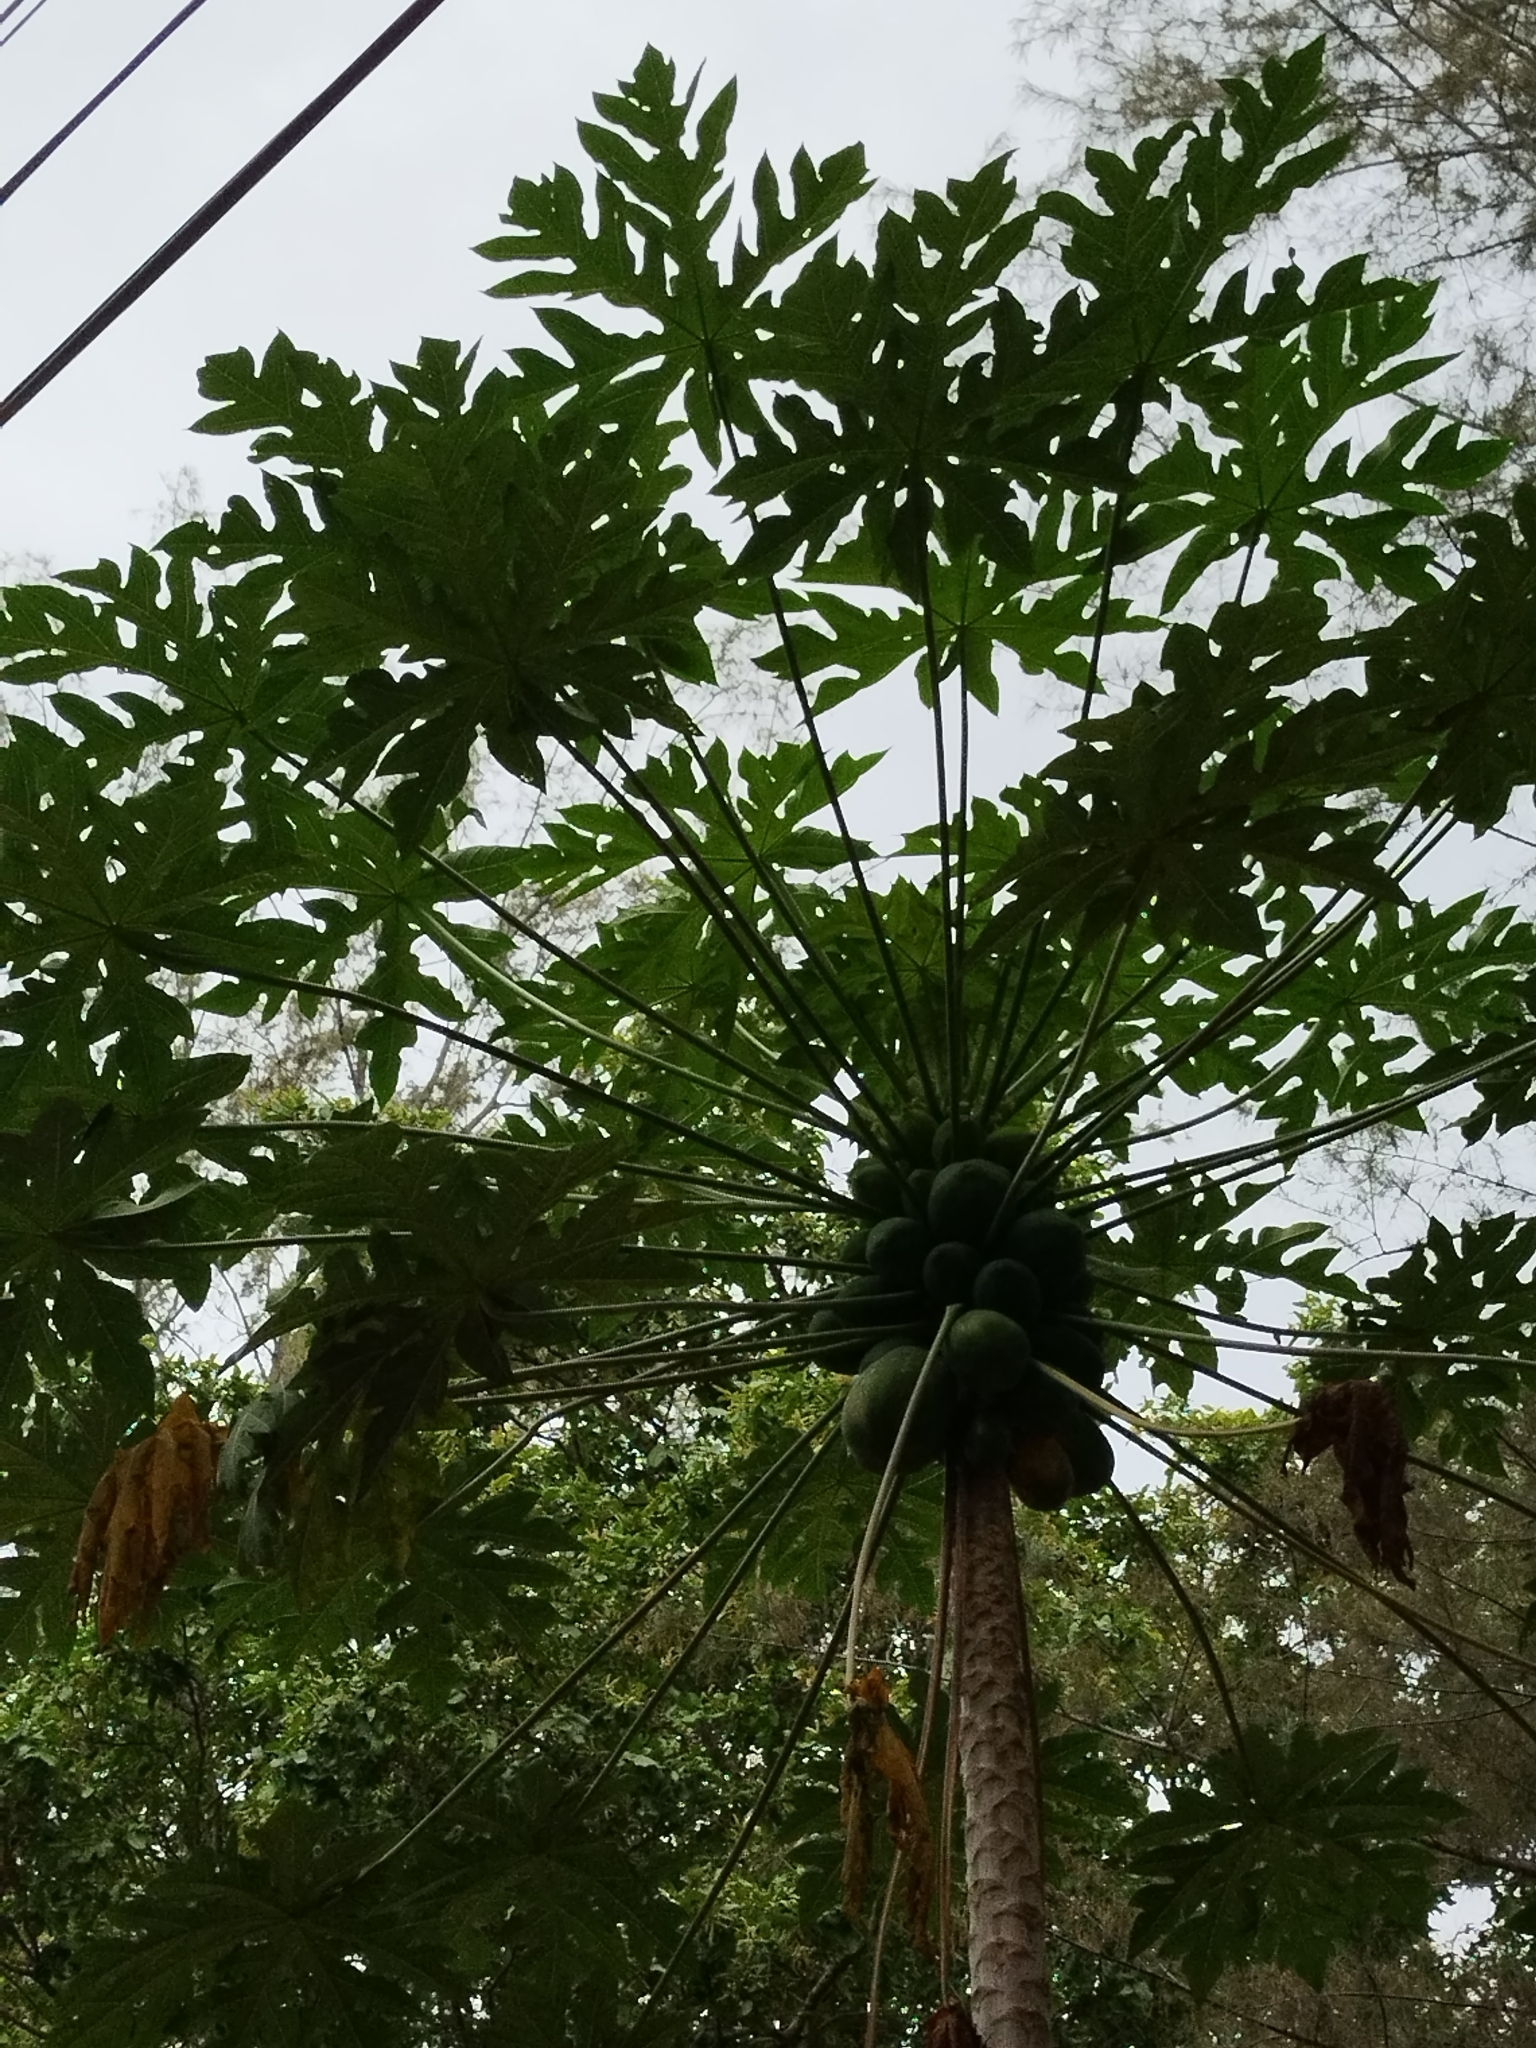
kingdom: Plantae
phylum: Tracheophyta
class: Magnoliopsida
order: Brassicales
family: Caricaceae
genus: Carica
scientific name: Carica papaya
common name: Papaya
